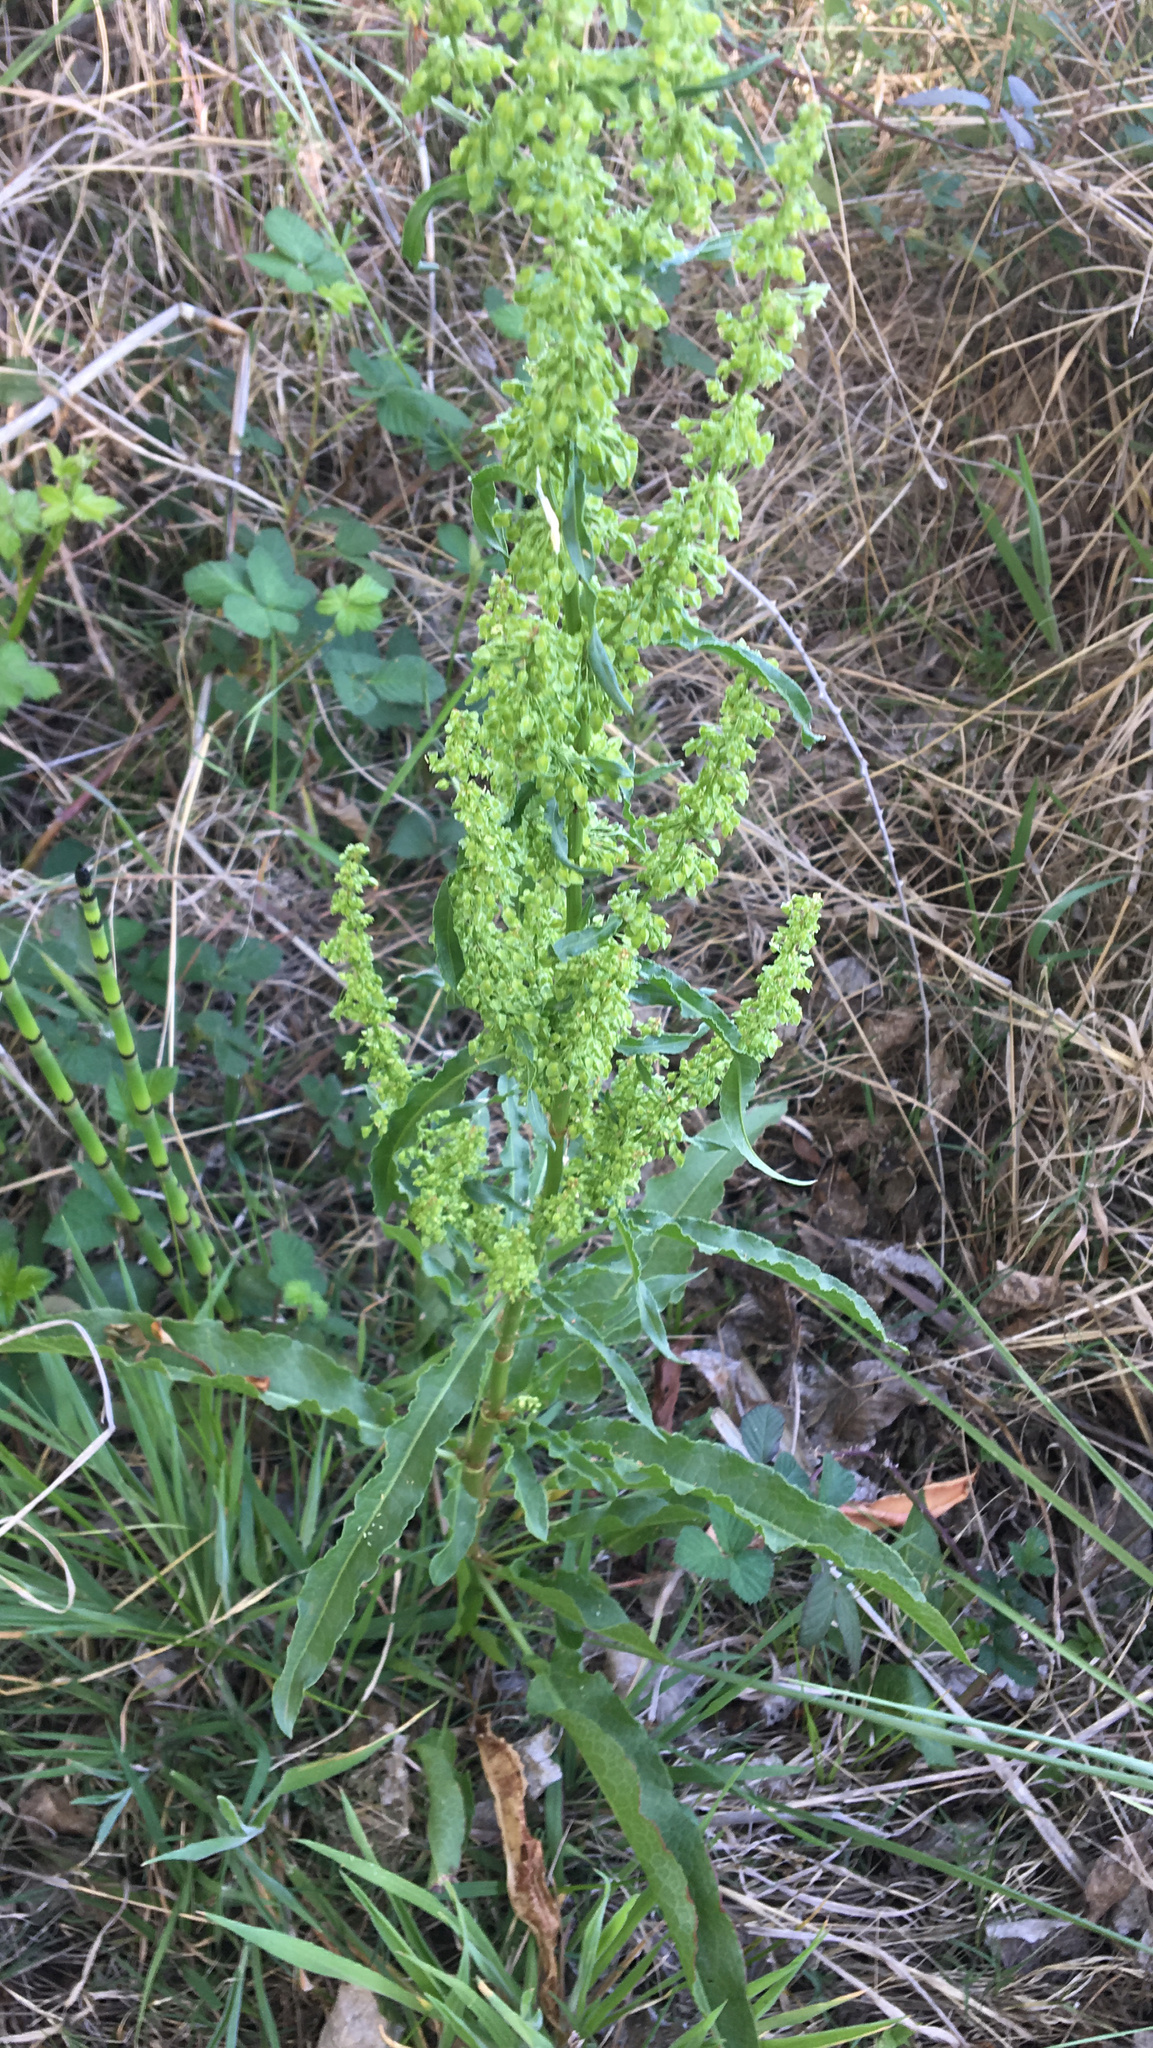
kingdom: Plantae
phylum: Tracheophyta
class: Magnoliopsida
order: Caryophyllales
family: Polygonaceae
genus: Rumex
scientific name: Rumex crispus
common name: Curled dock
